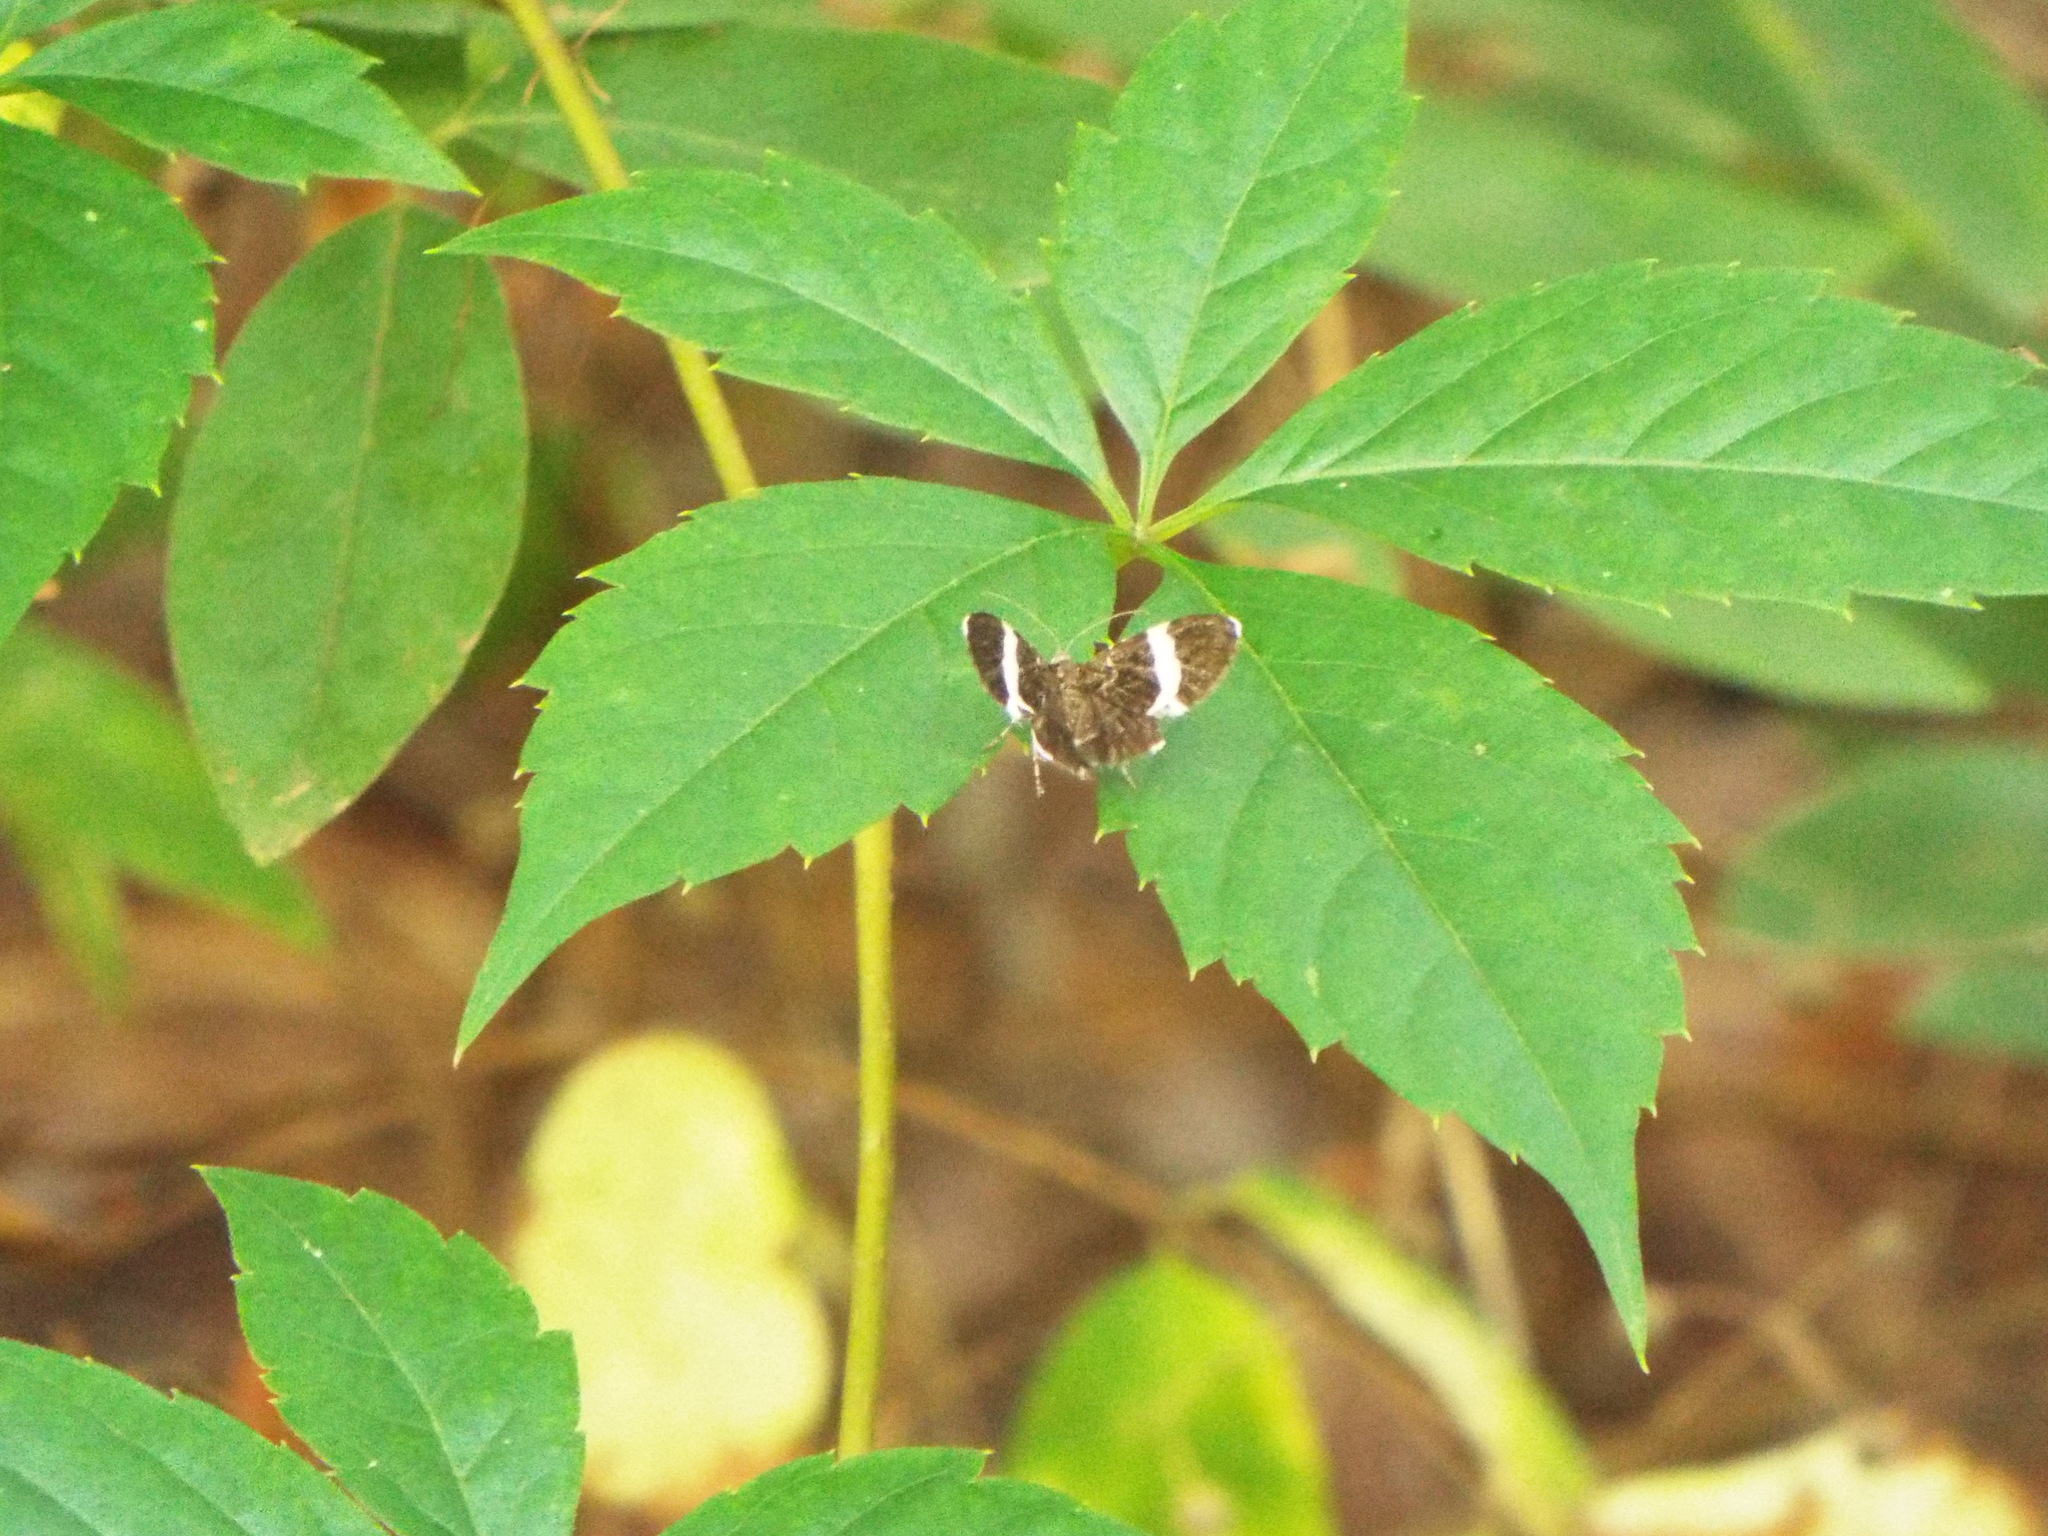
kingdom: Animalia
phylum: Arthropoda
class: Insecta
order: Lepidoptera
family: Geometridae
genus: Trichodezia
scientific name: Trichodezia albovittata
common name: White striped black
